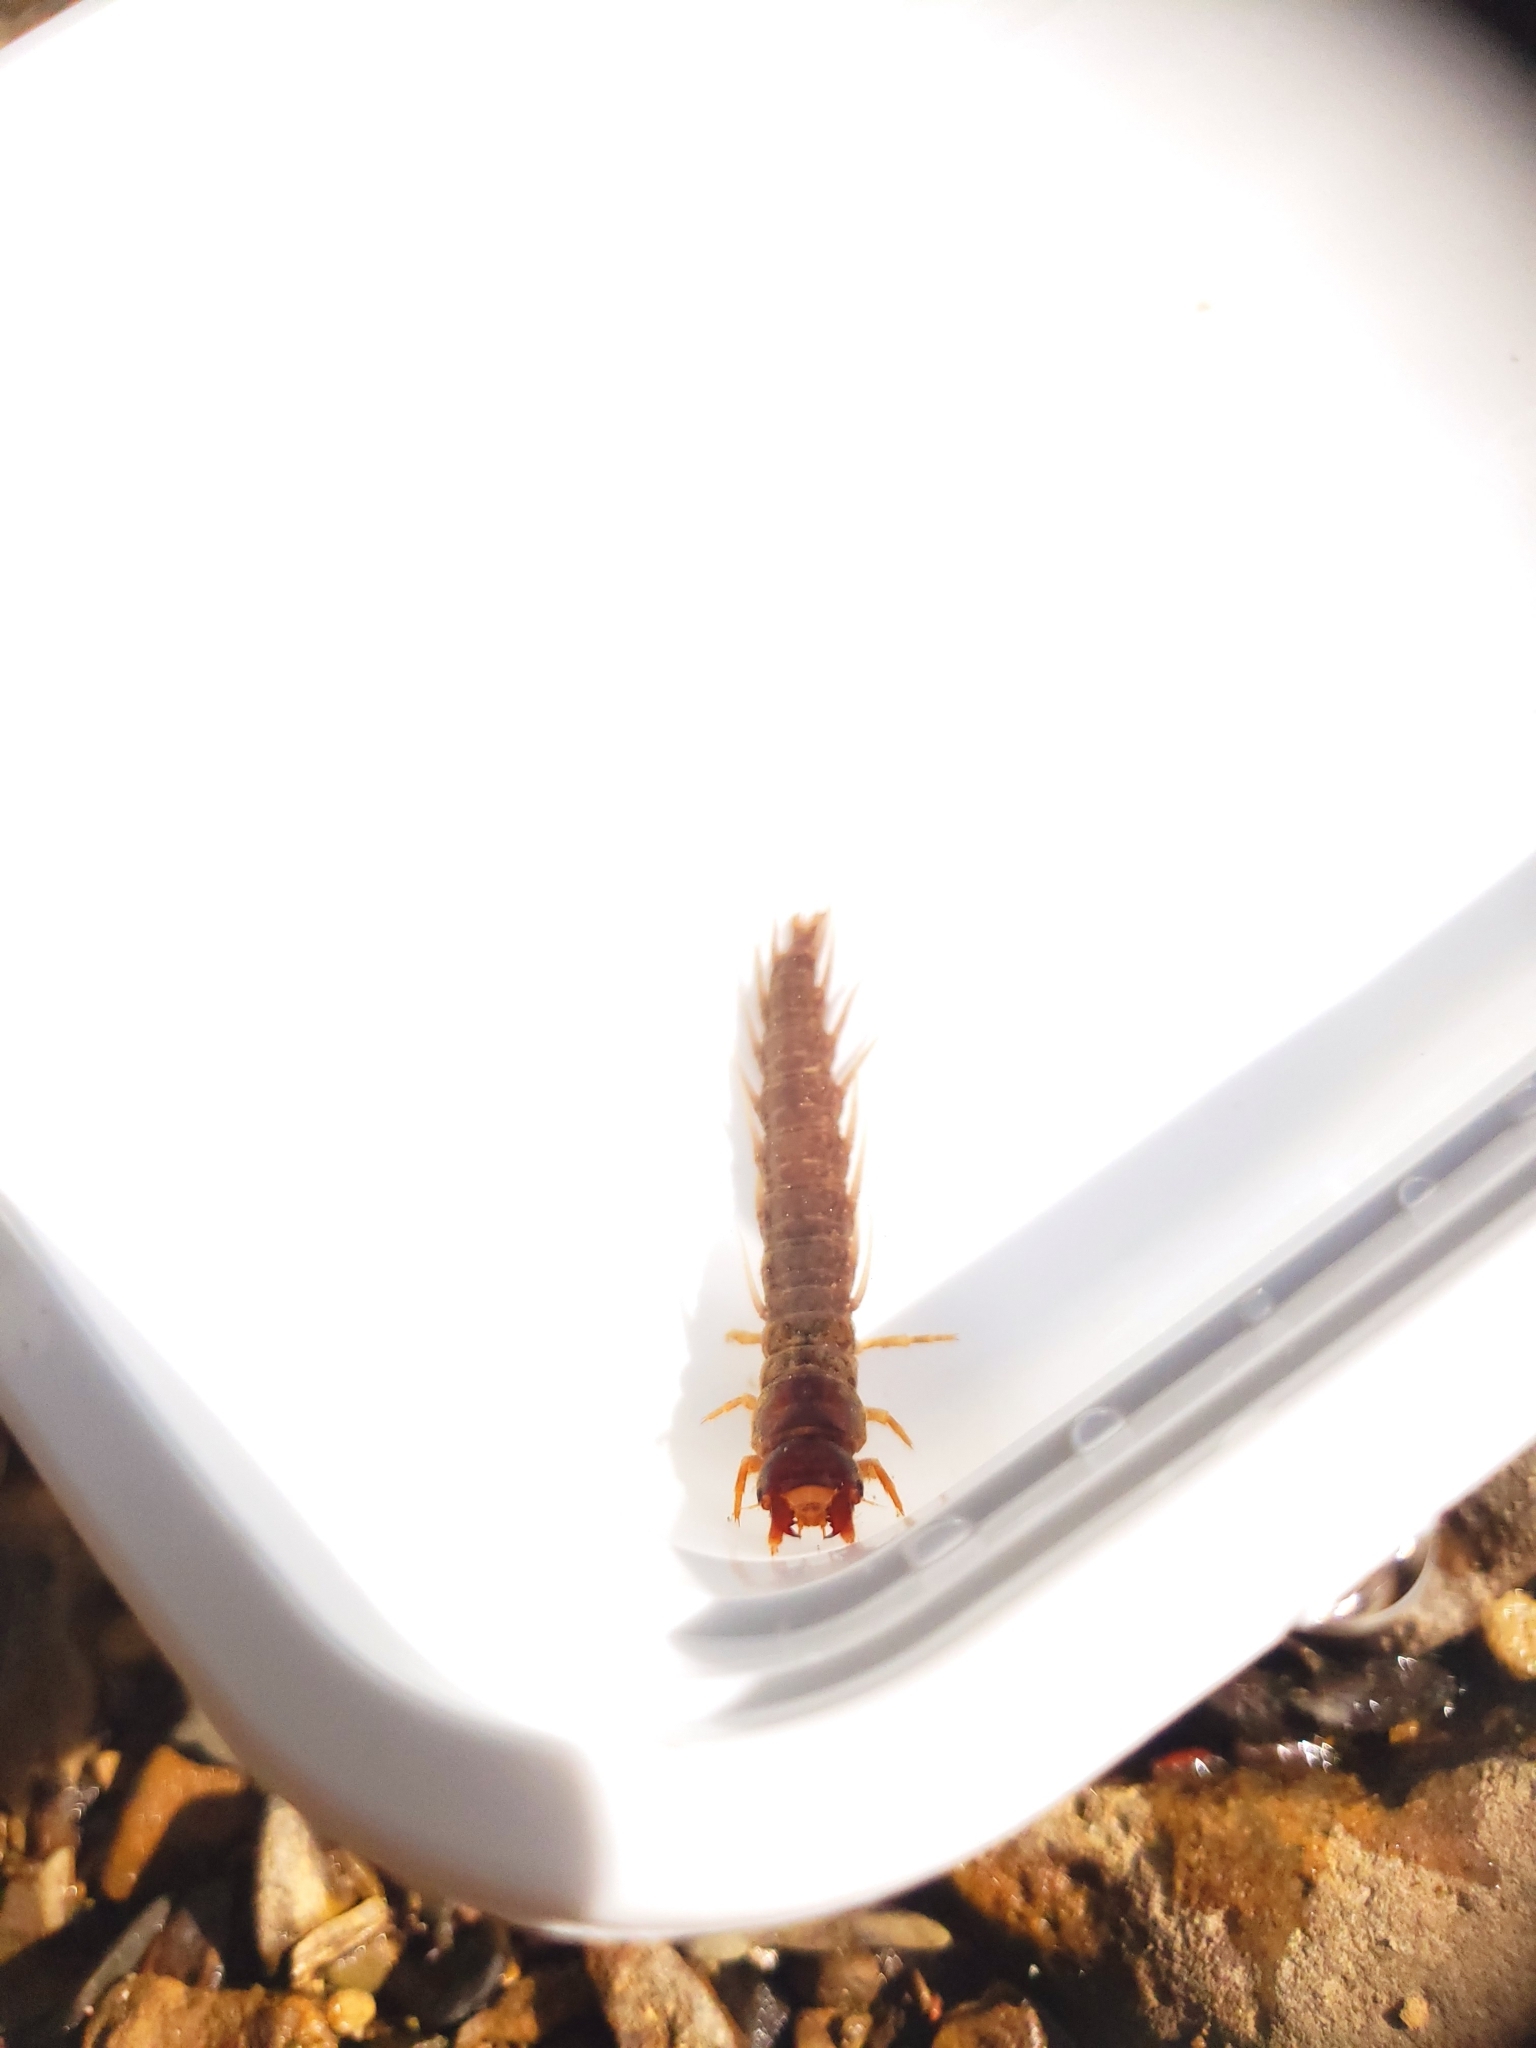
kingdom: Animalia
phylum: Arthropoda
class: Insecta
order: Megaloptera
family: Corydalidae
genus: Nigronia
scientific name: Nigronia serricornis
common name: Serrate dark fishfly
